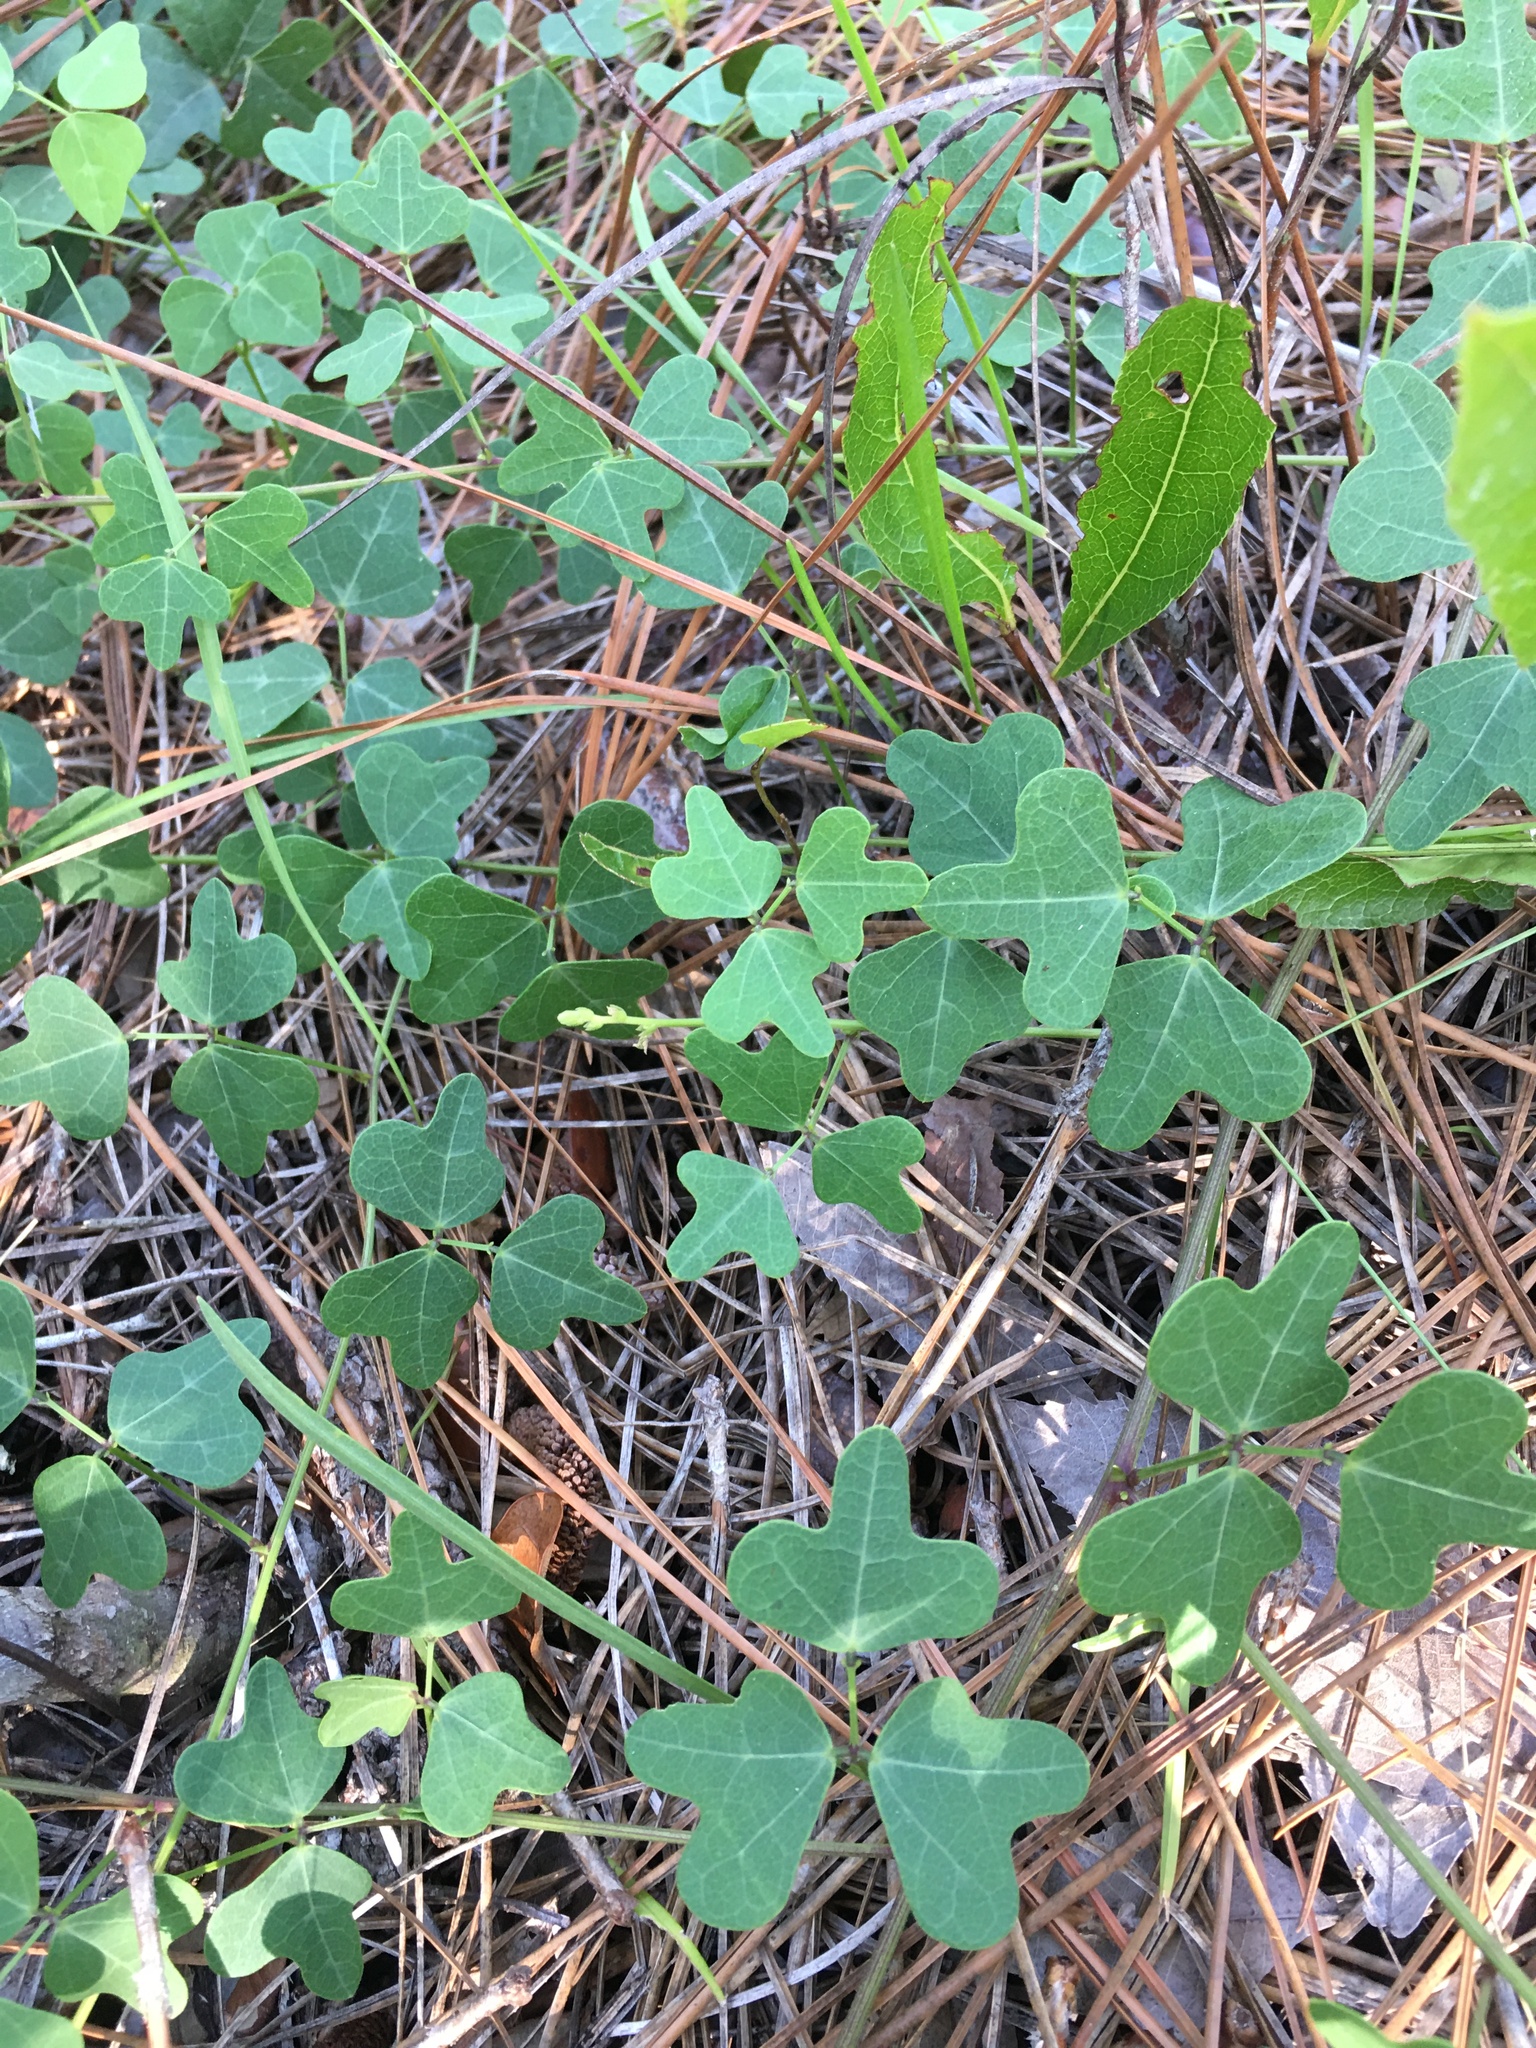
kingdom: Plantae
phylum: Tracheophyta
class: Magnoliopsida
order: Fabales
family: Fabaceae
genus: Phaseolus
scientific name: Phaseolus sinuatus
